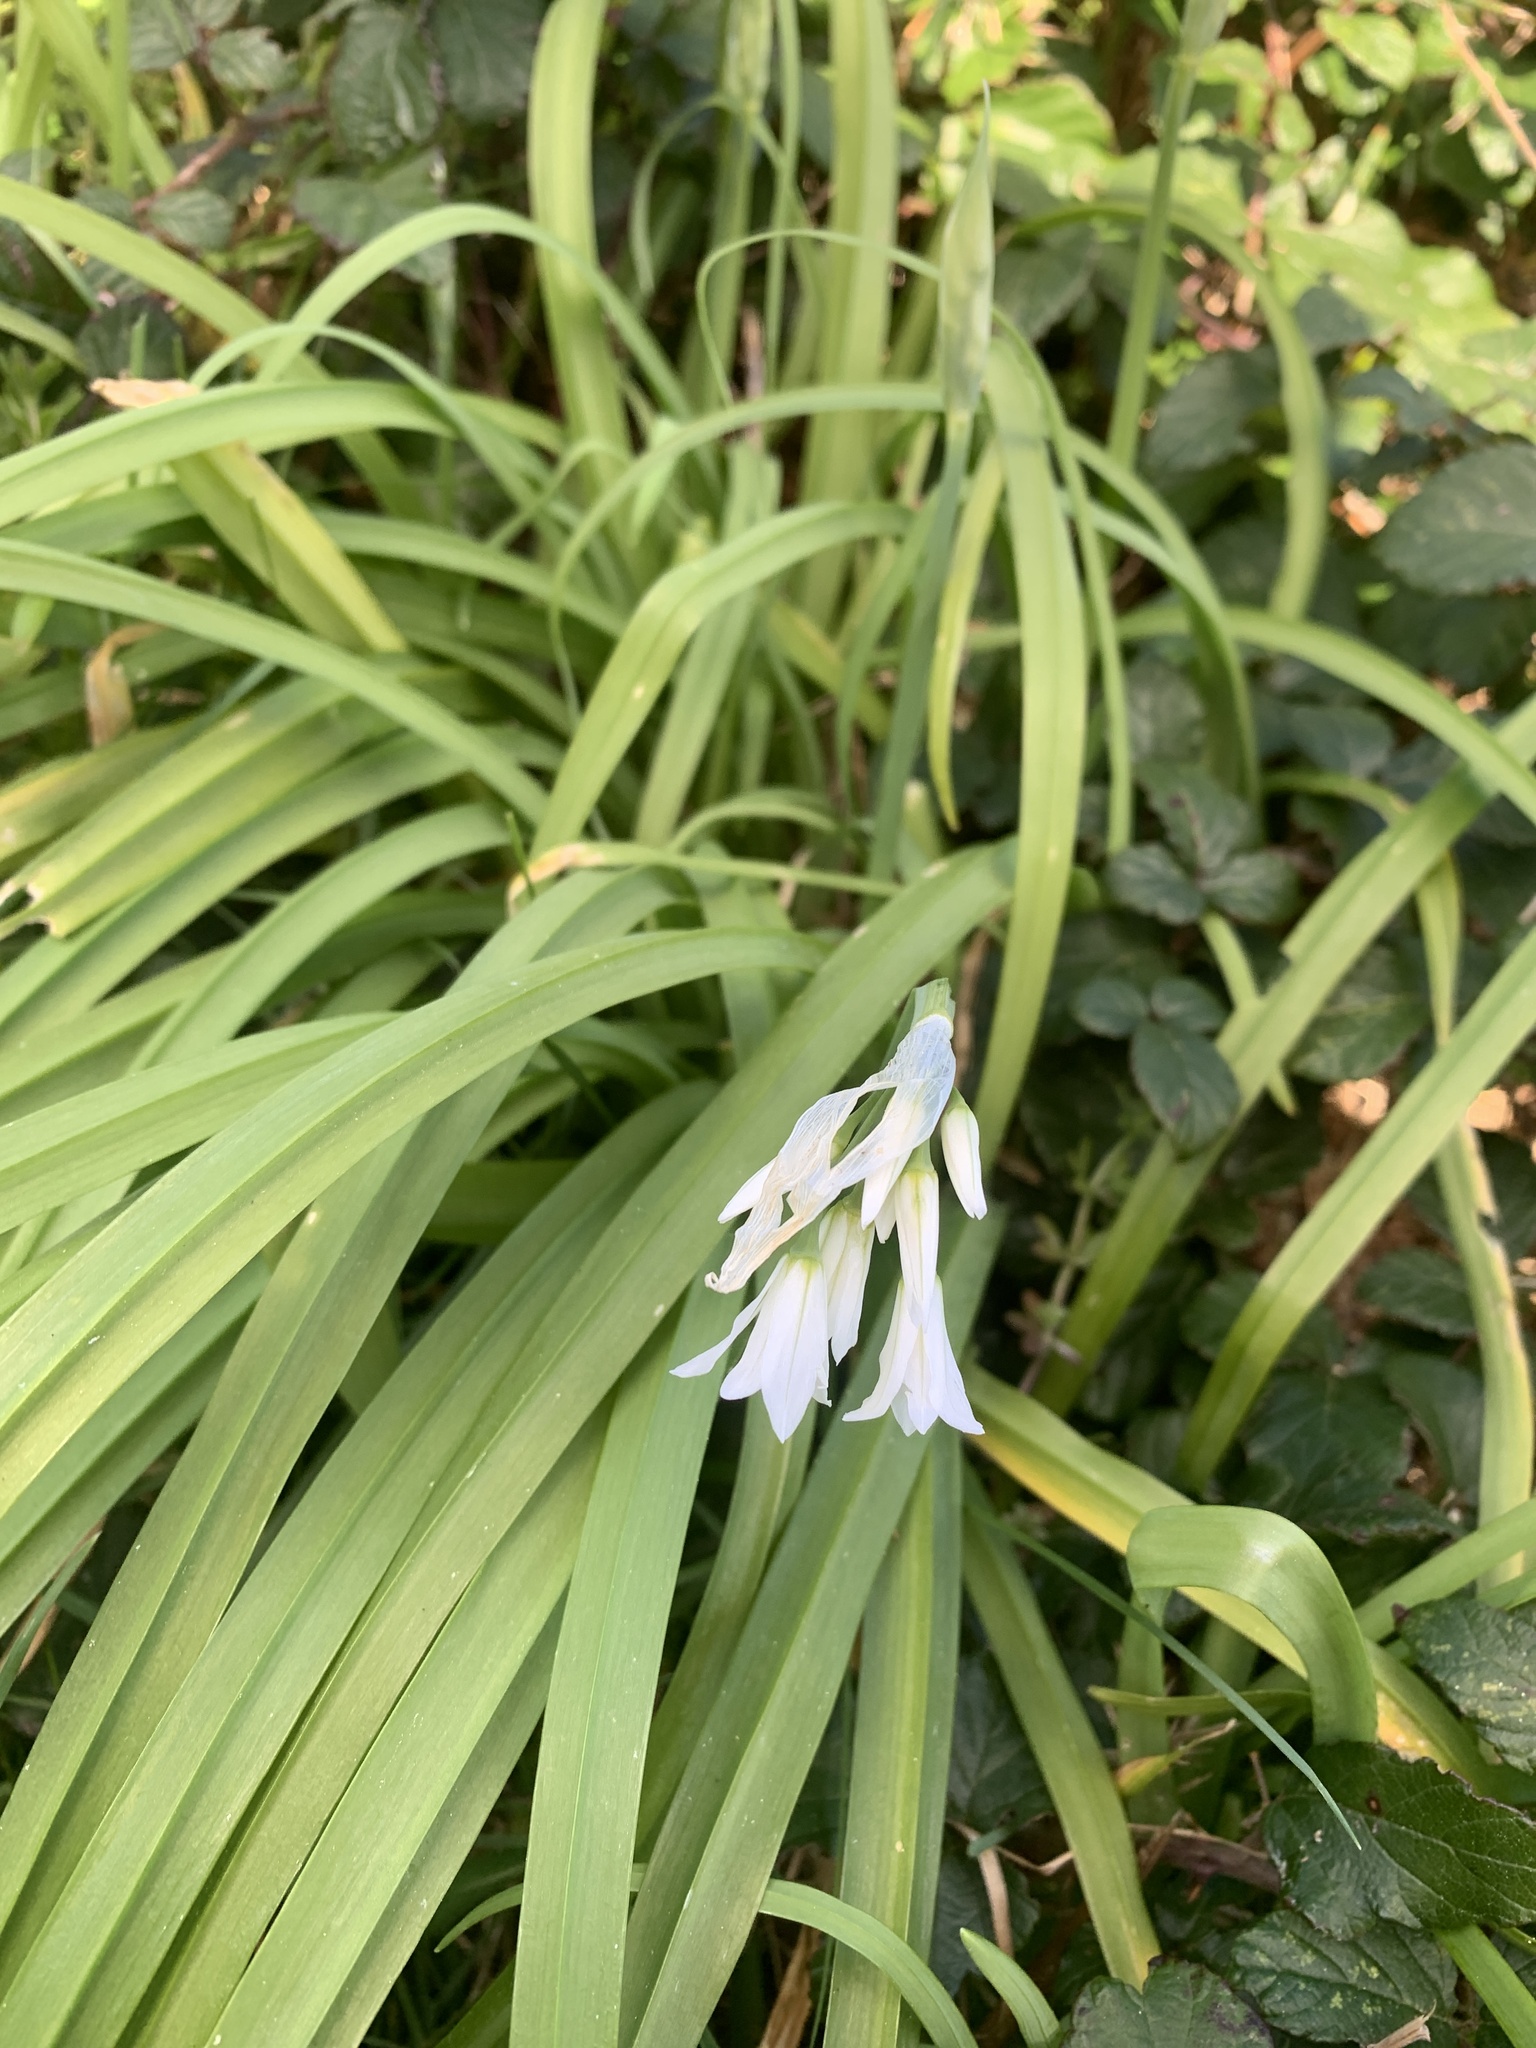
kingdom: Plantae
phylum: Tracheophyta
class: Liliopsida
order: Asparagales
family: Amaryllidaceae
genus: Allium
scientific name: Allium triquetrum
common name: Three-cornered garlic
